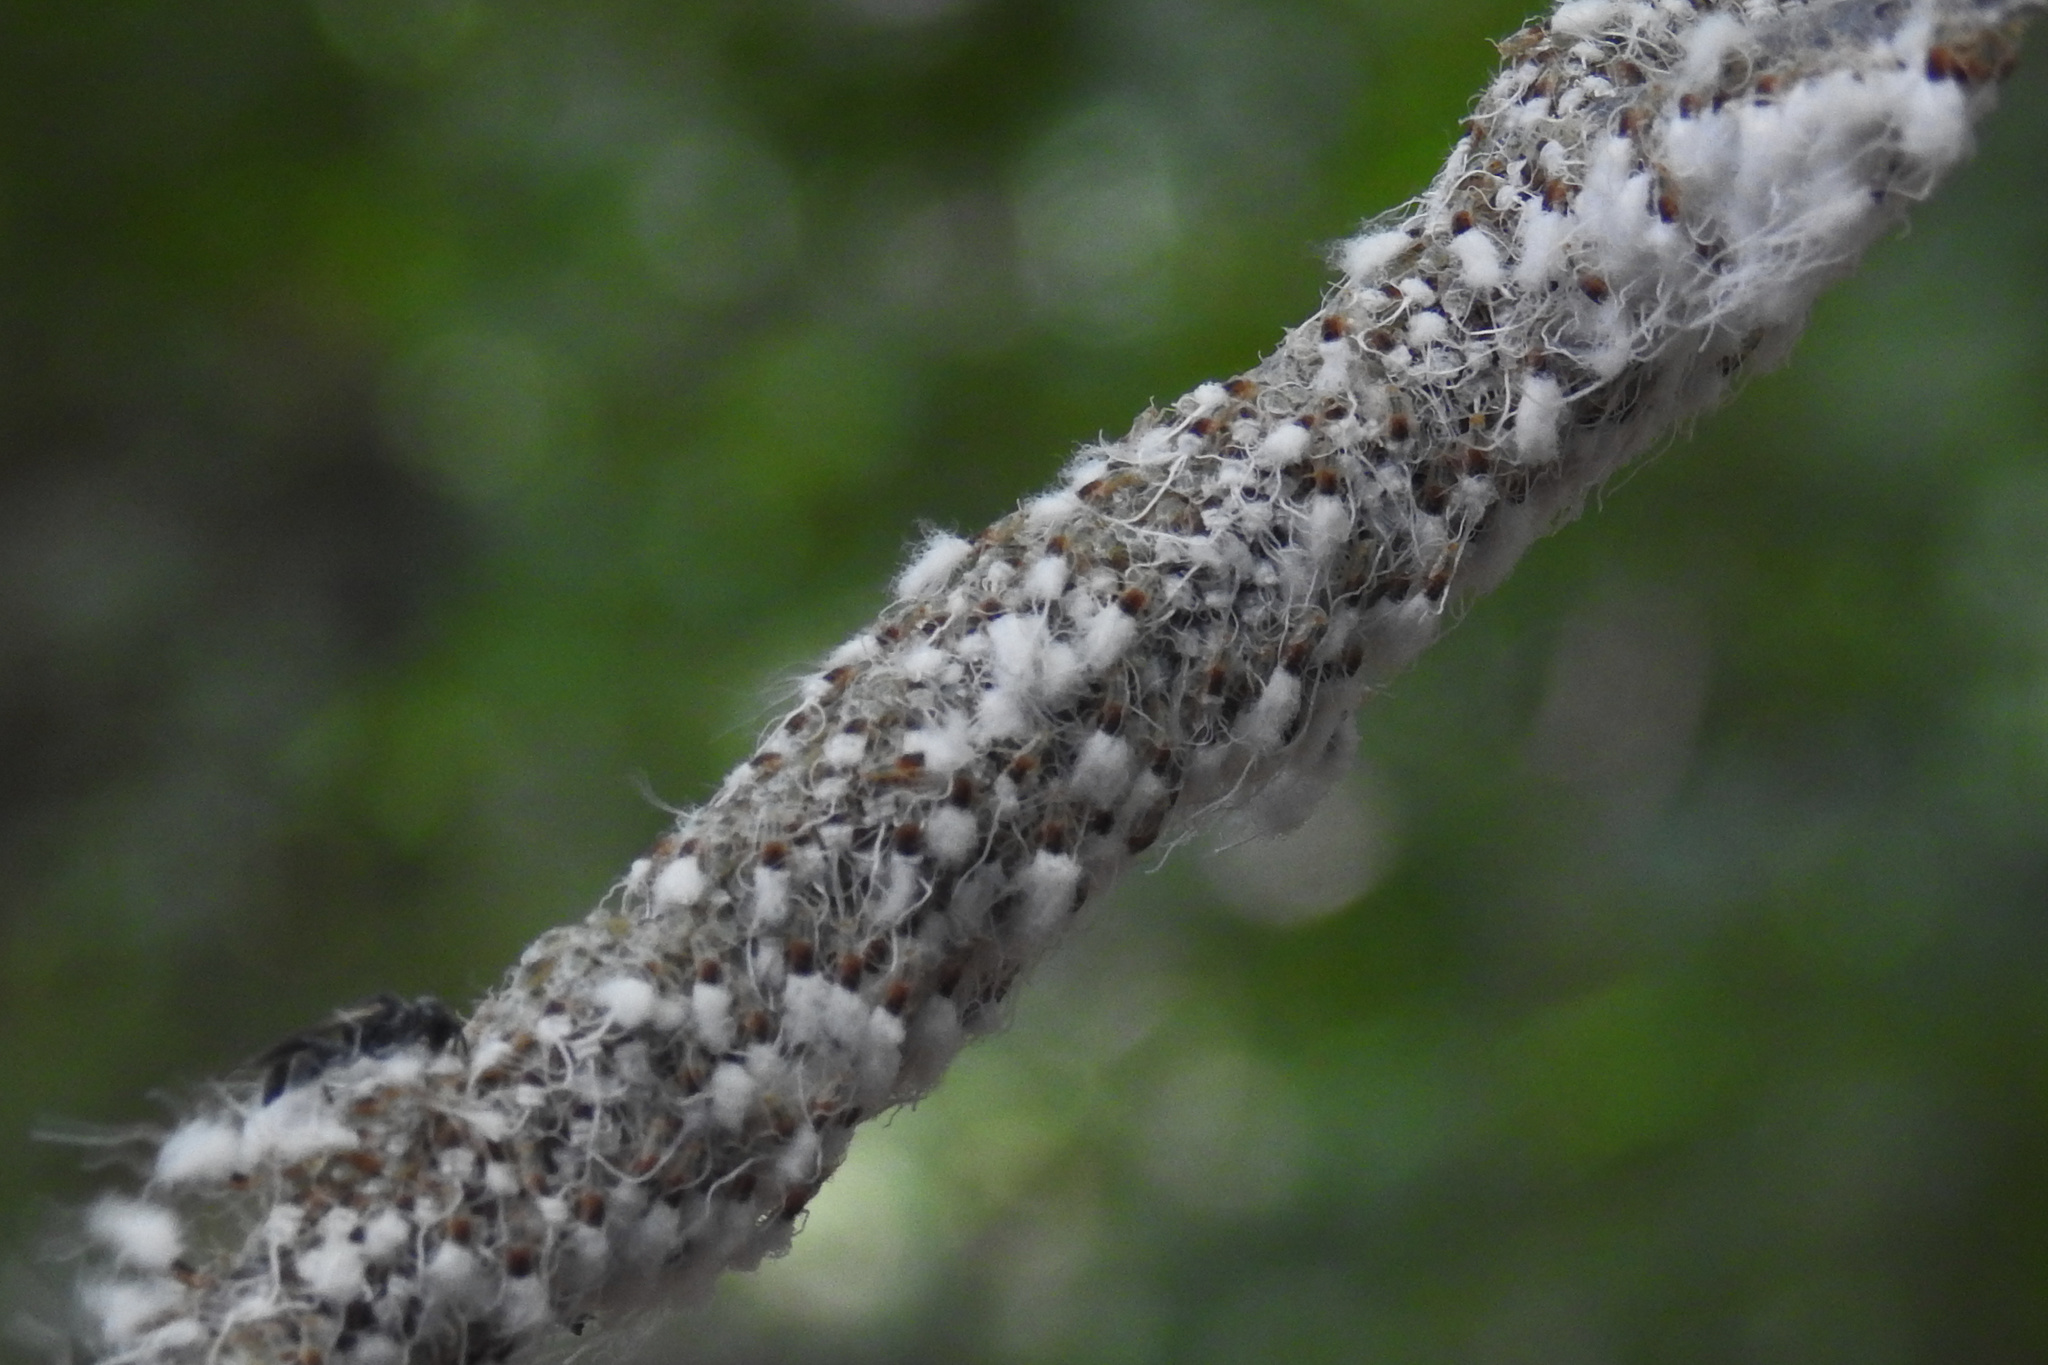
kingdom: Animalia
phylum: Arthropoda
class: Insecta
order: Hemiptera
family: Aphididae
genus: Grylloprociphilus
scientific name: Grylloprociphilus imbricator
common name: Beech blight aphid
